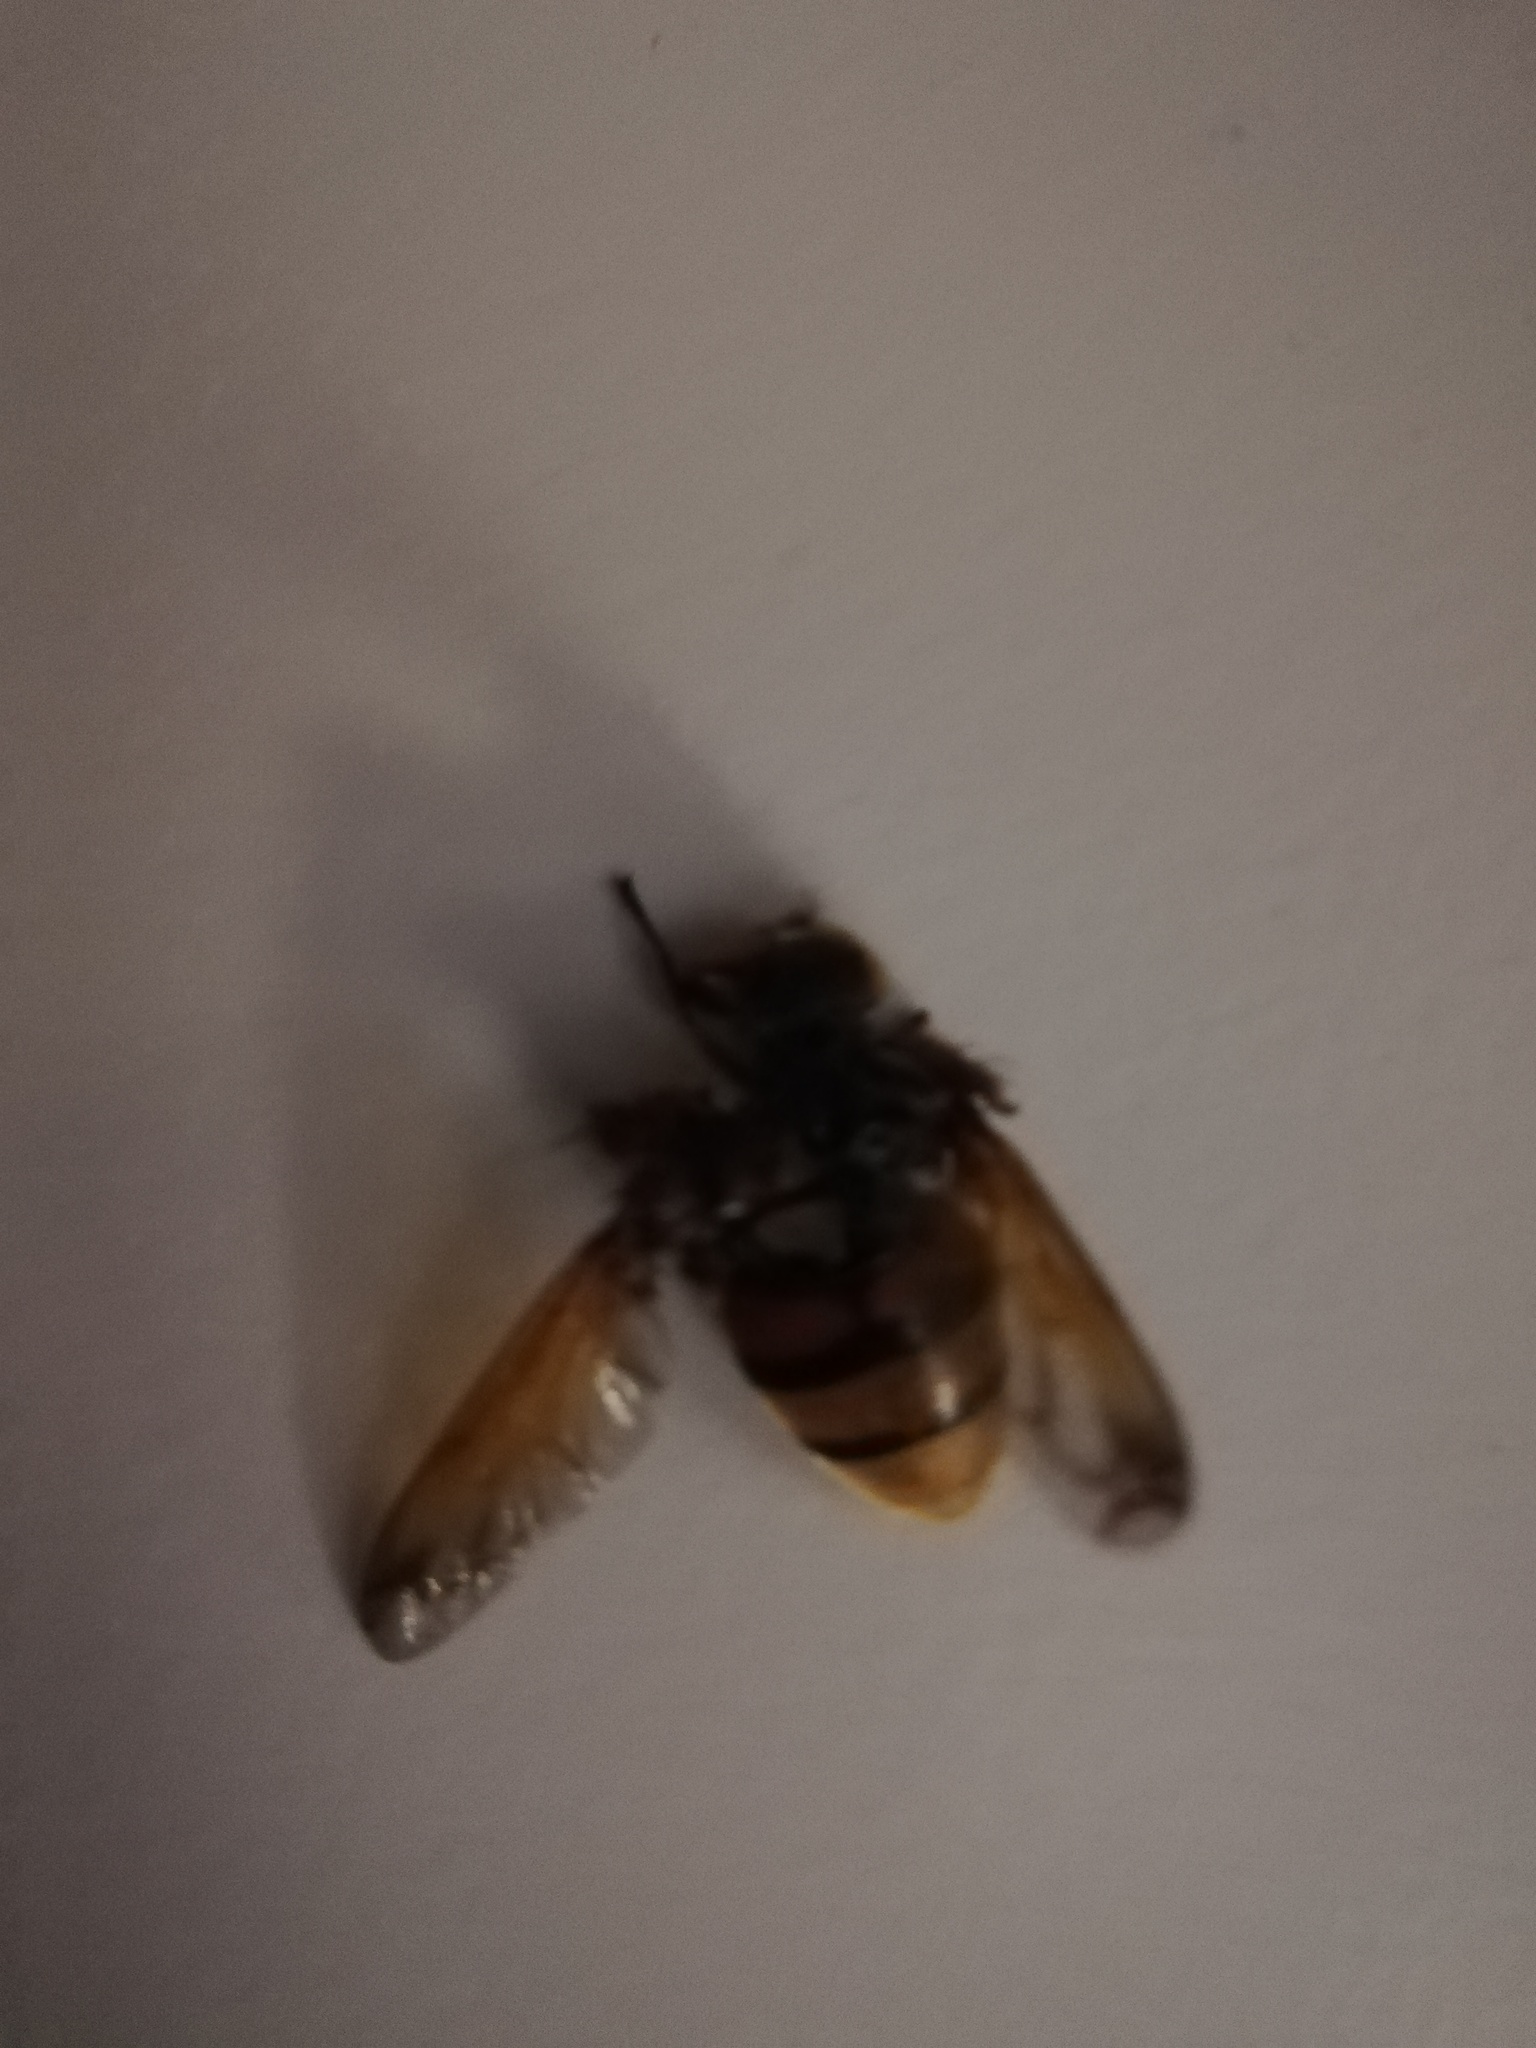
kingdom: Animalia
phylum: Arthropoda
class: Insecta
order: Diptera
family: Syrphidae
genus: Volucella
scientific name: Volucella zonaria
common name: Hornet hoverfly
